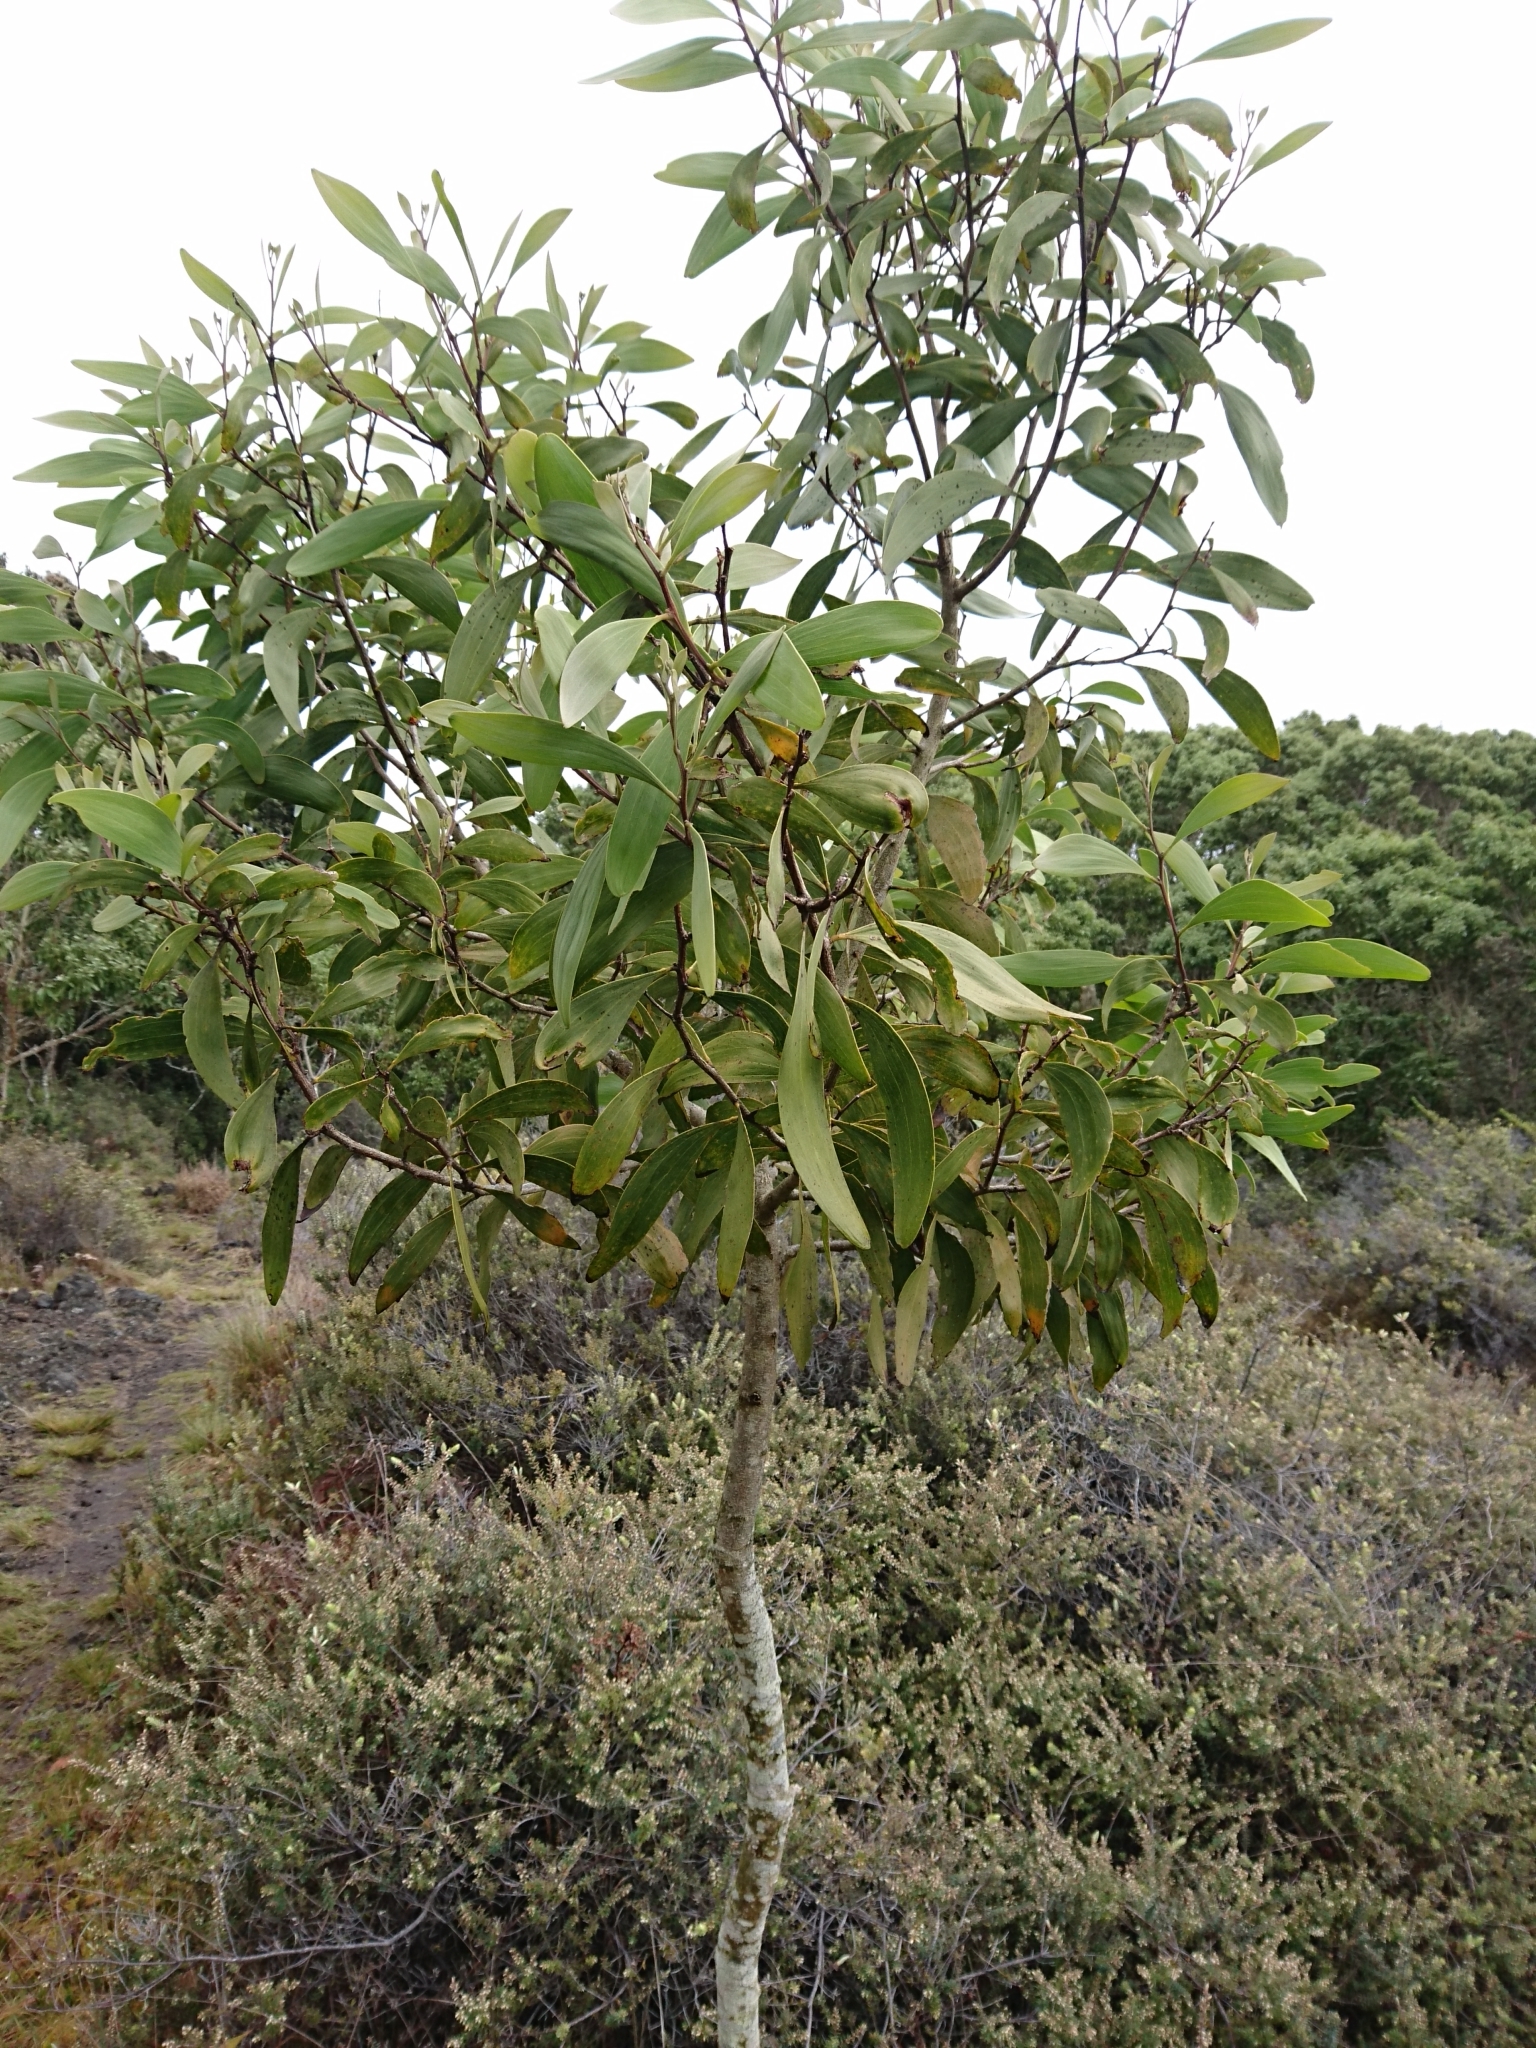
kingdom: Plantae
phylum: Tracheophyta
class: Magnoliopsida
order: Fabales
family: Fabaceae
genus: Acacia
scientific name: Acacia koa
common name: Gray koa
